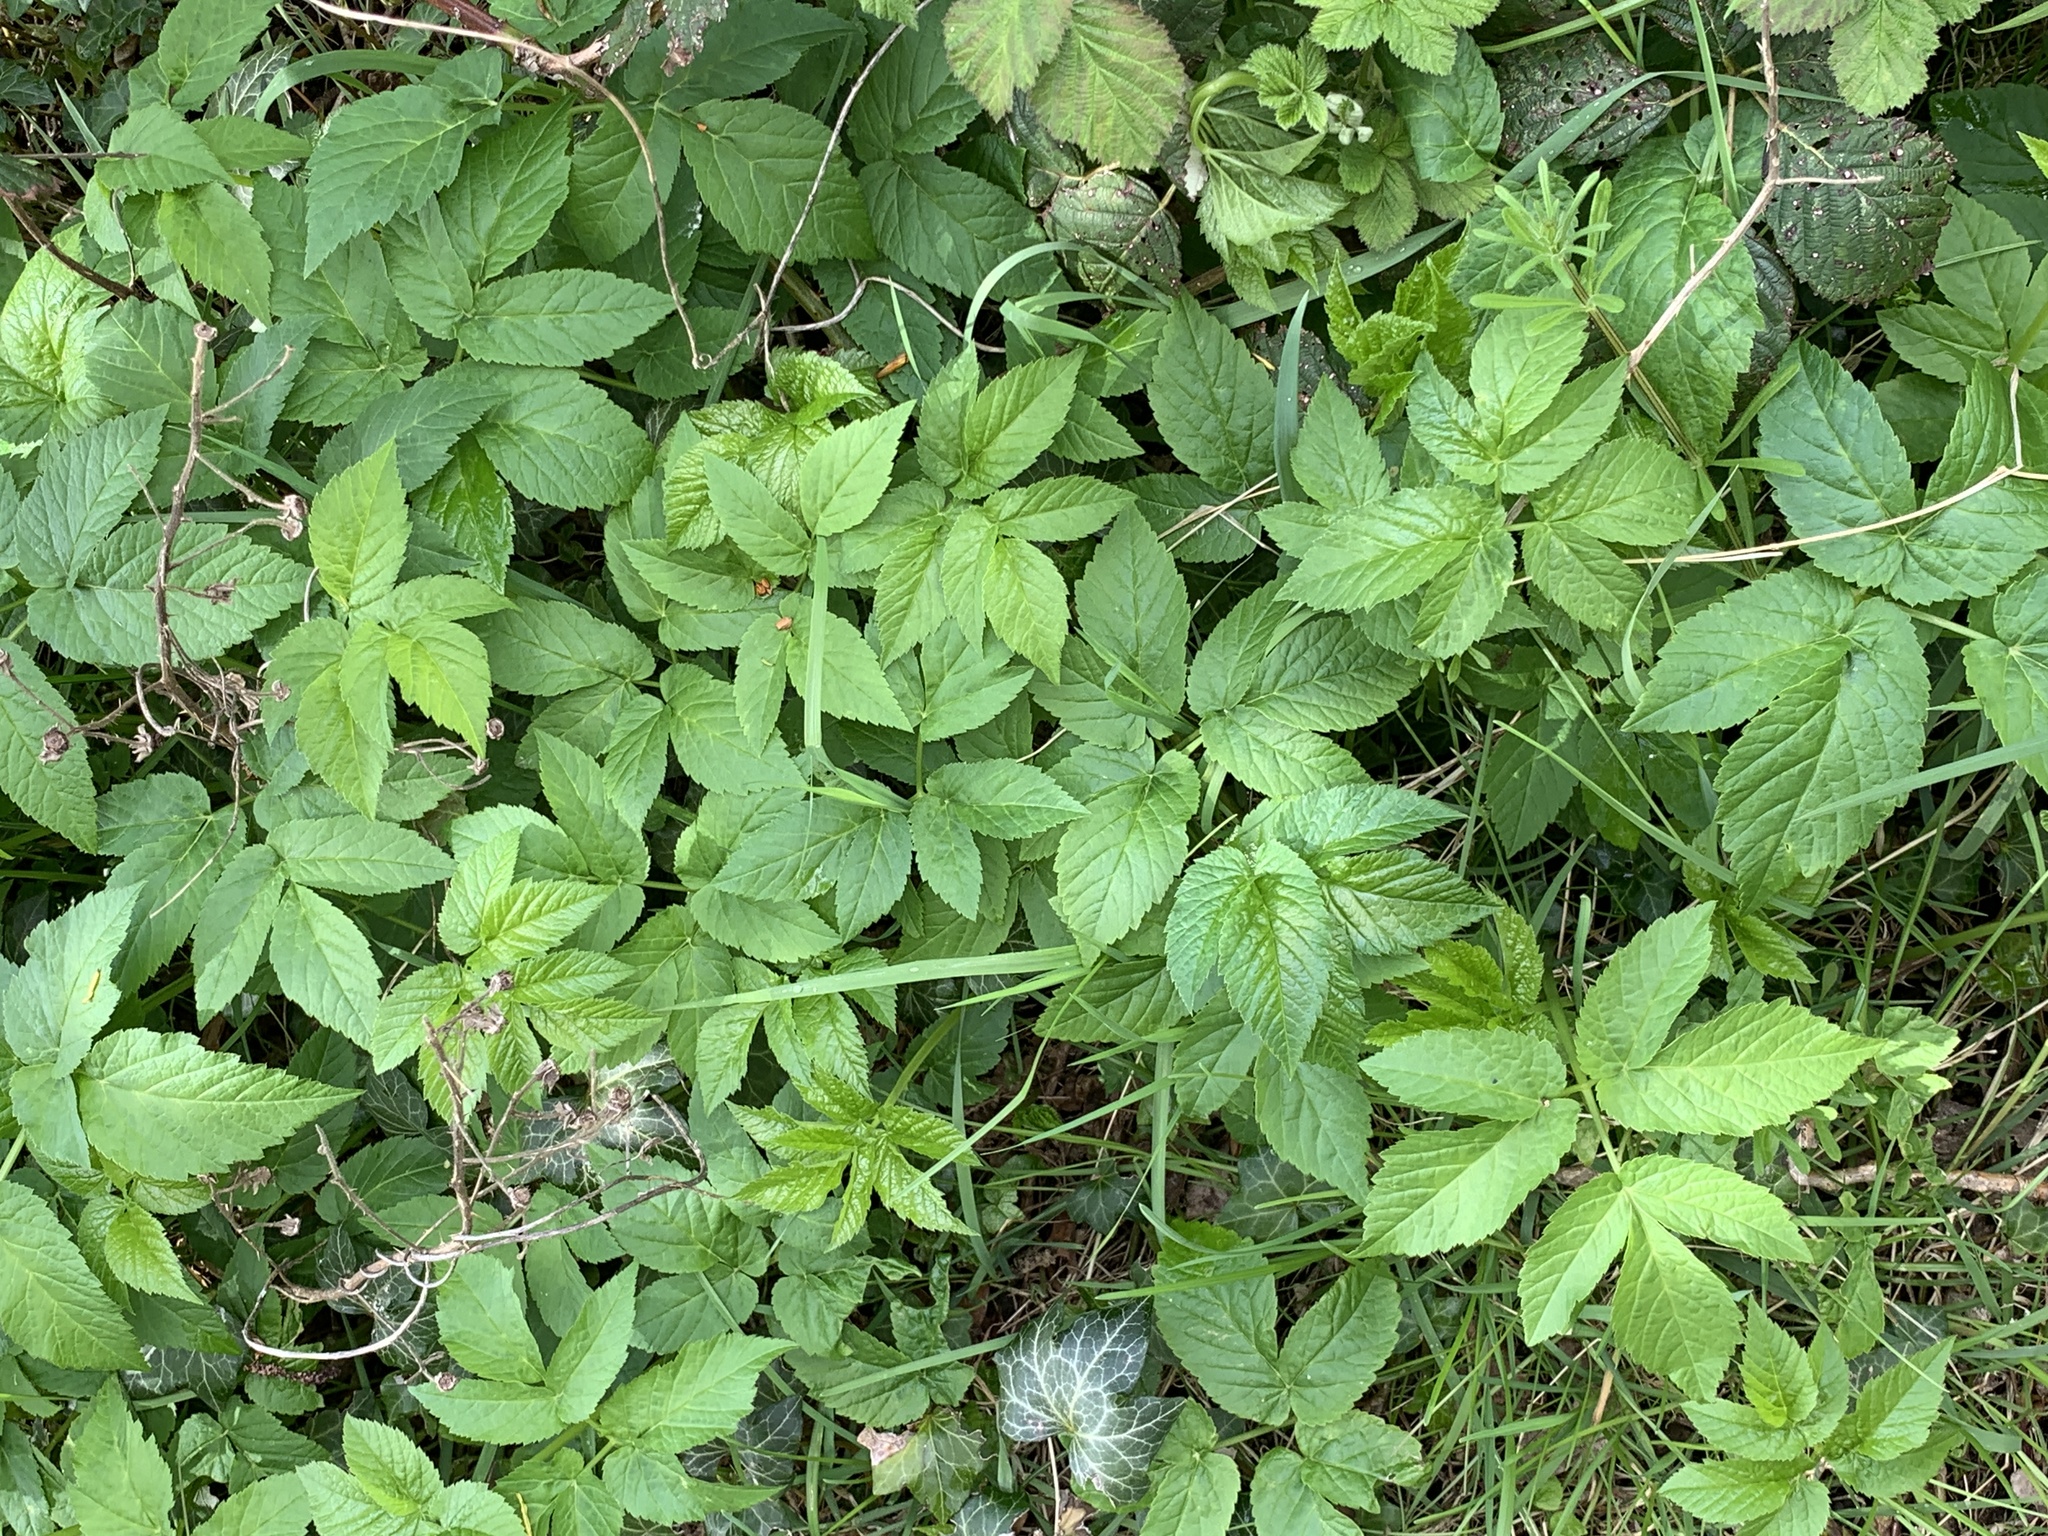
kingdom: Plantae
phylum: Tracheophyta
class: Magnoliopsida
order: Apiales
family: Apiaceae
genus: Aegopodium
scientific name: Aegopodium podagraria
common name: Ground-elder
